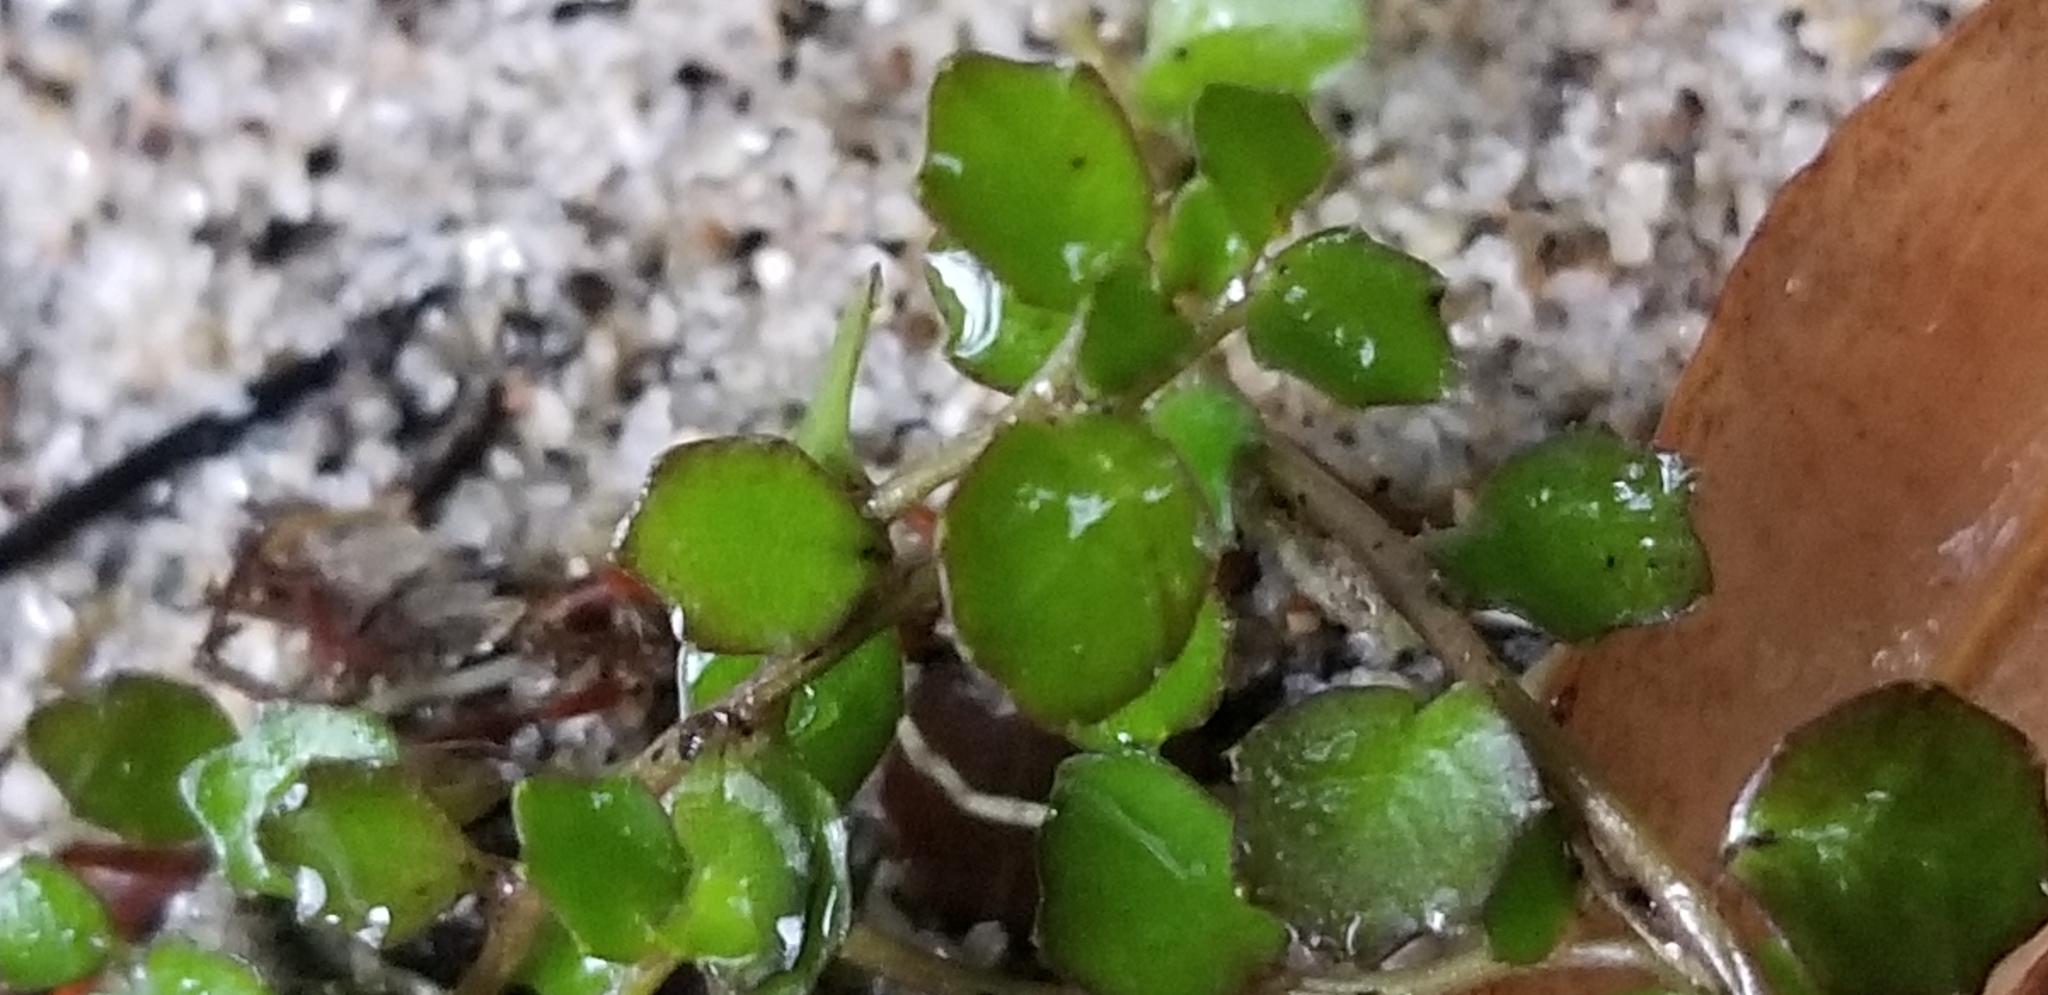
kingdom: Plantae
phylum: Tracheophyta
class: Magnoliopsida
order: Asterales
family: Campanulaceae
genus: Lobelia
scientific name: Lobelia angulata
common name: Lawn lobelia
